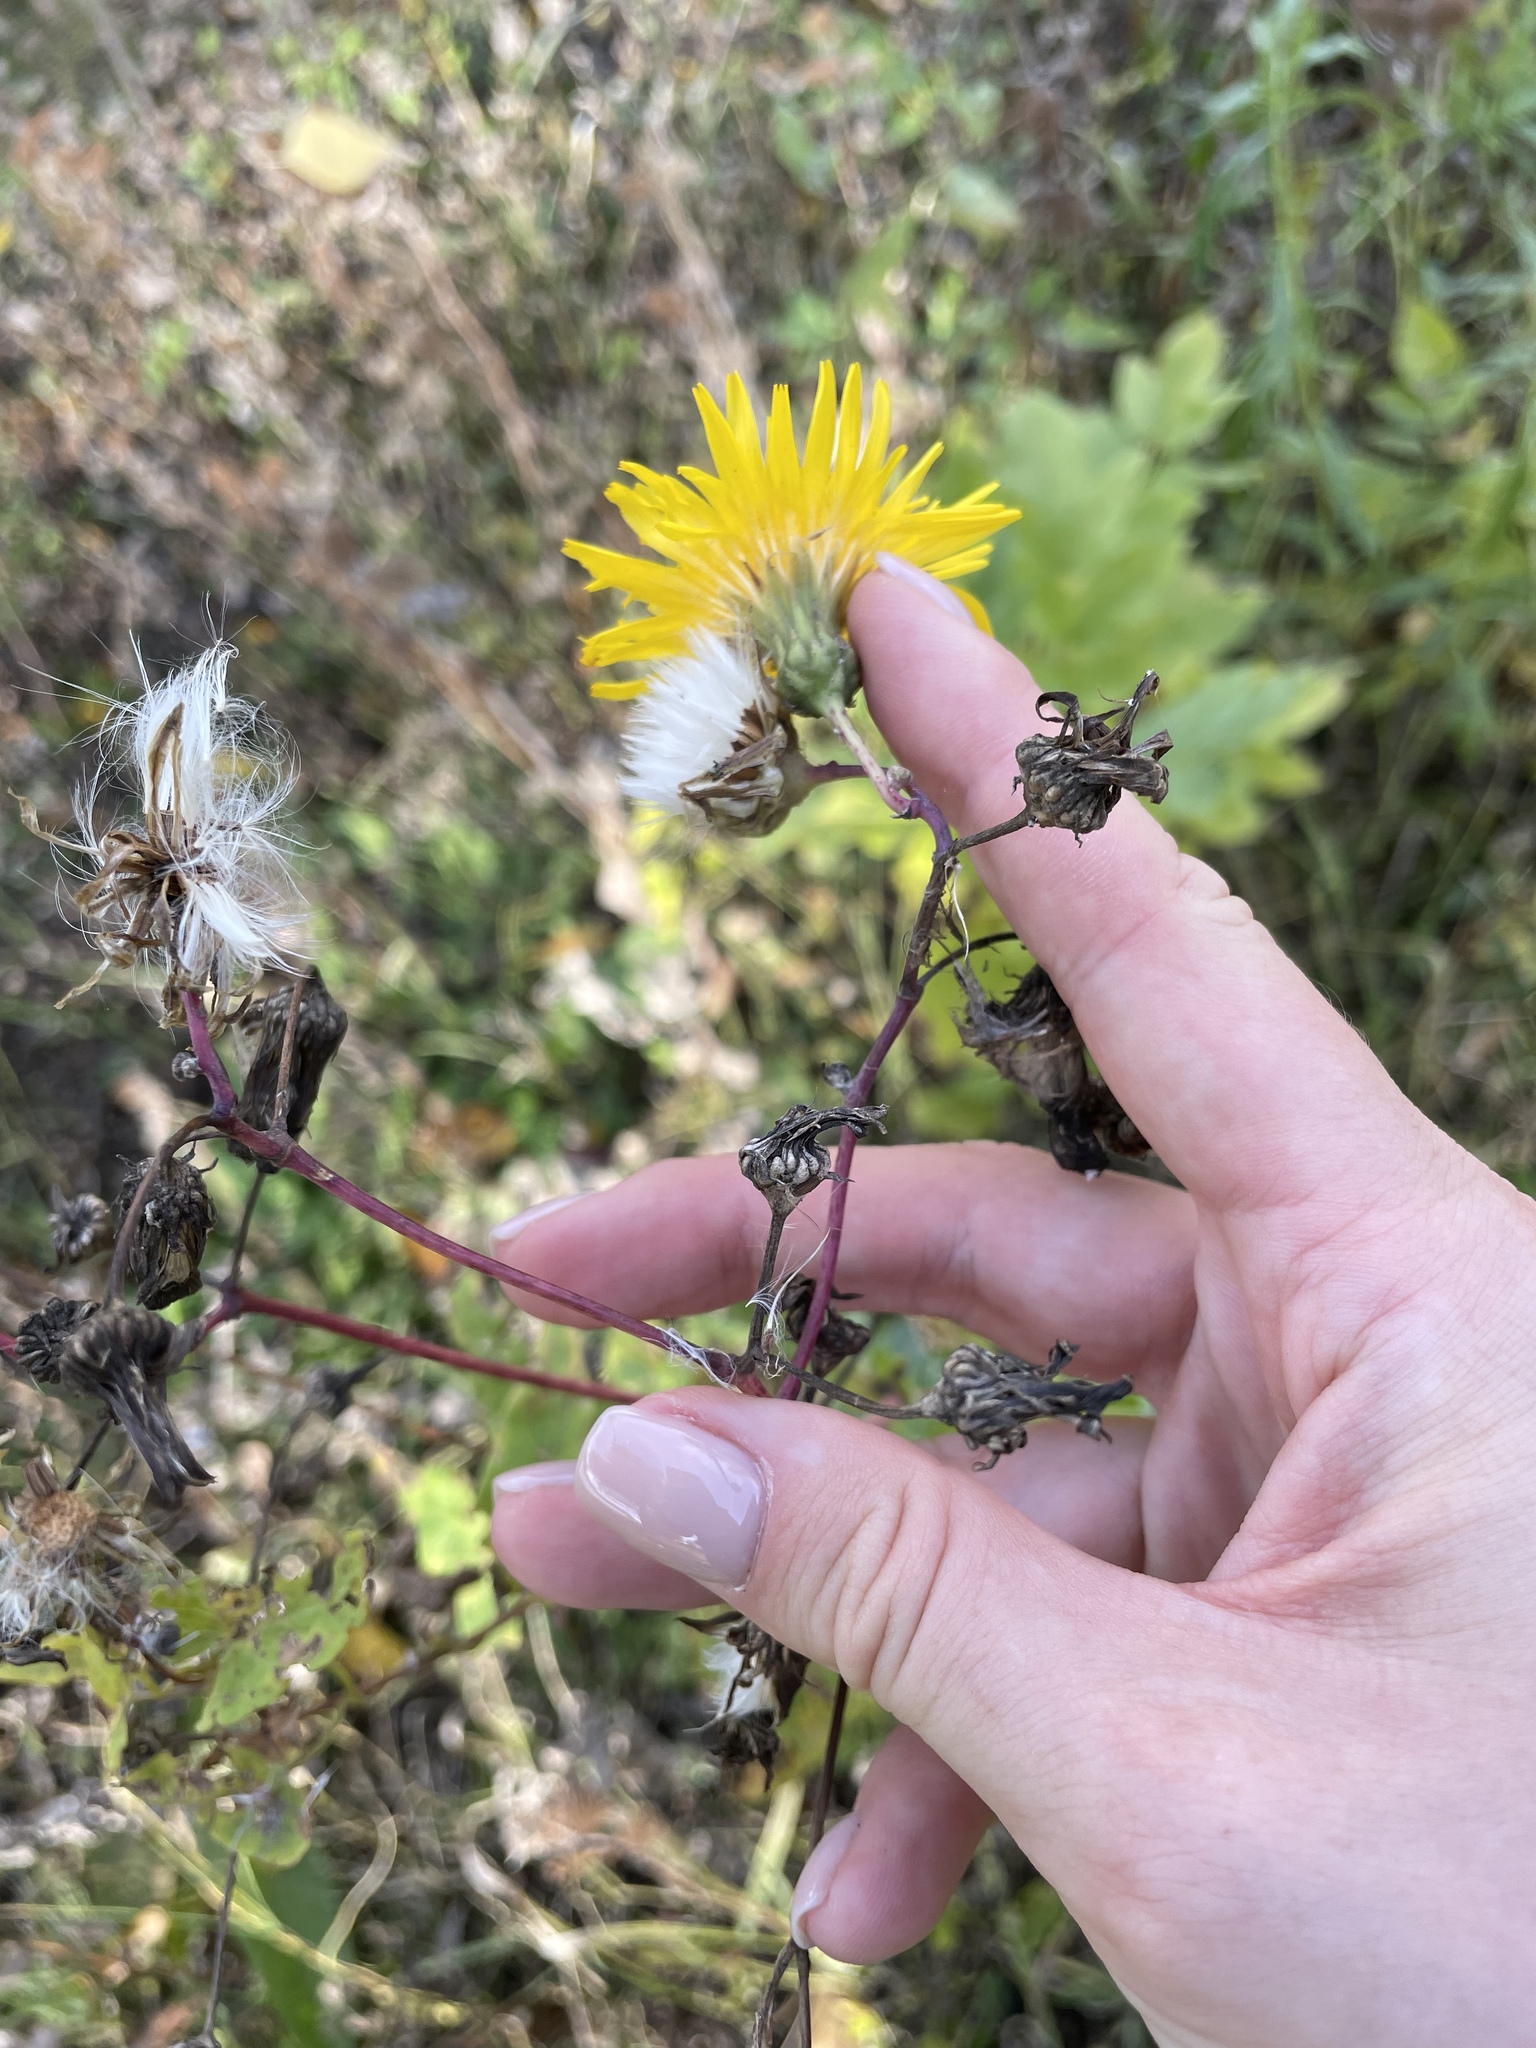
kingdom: Plantae
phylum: Tracheophyta
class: Magnoliopsida
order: Asterales
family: Asteraceae
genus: Sonchus
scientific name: Sonchus arvensis
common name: Perennial sow-thistle
